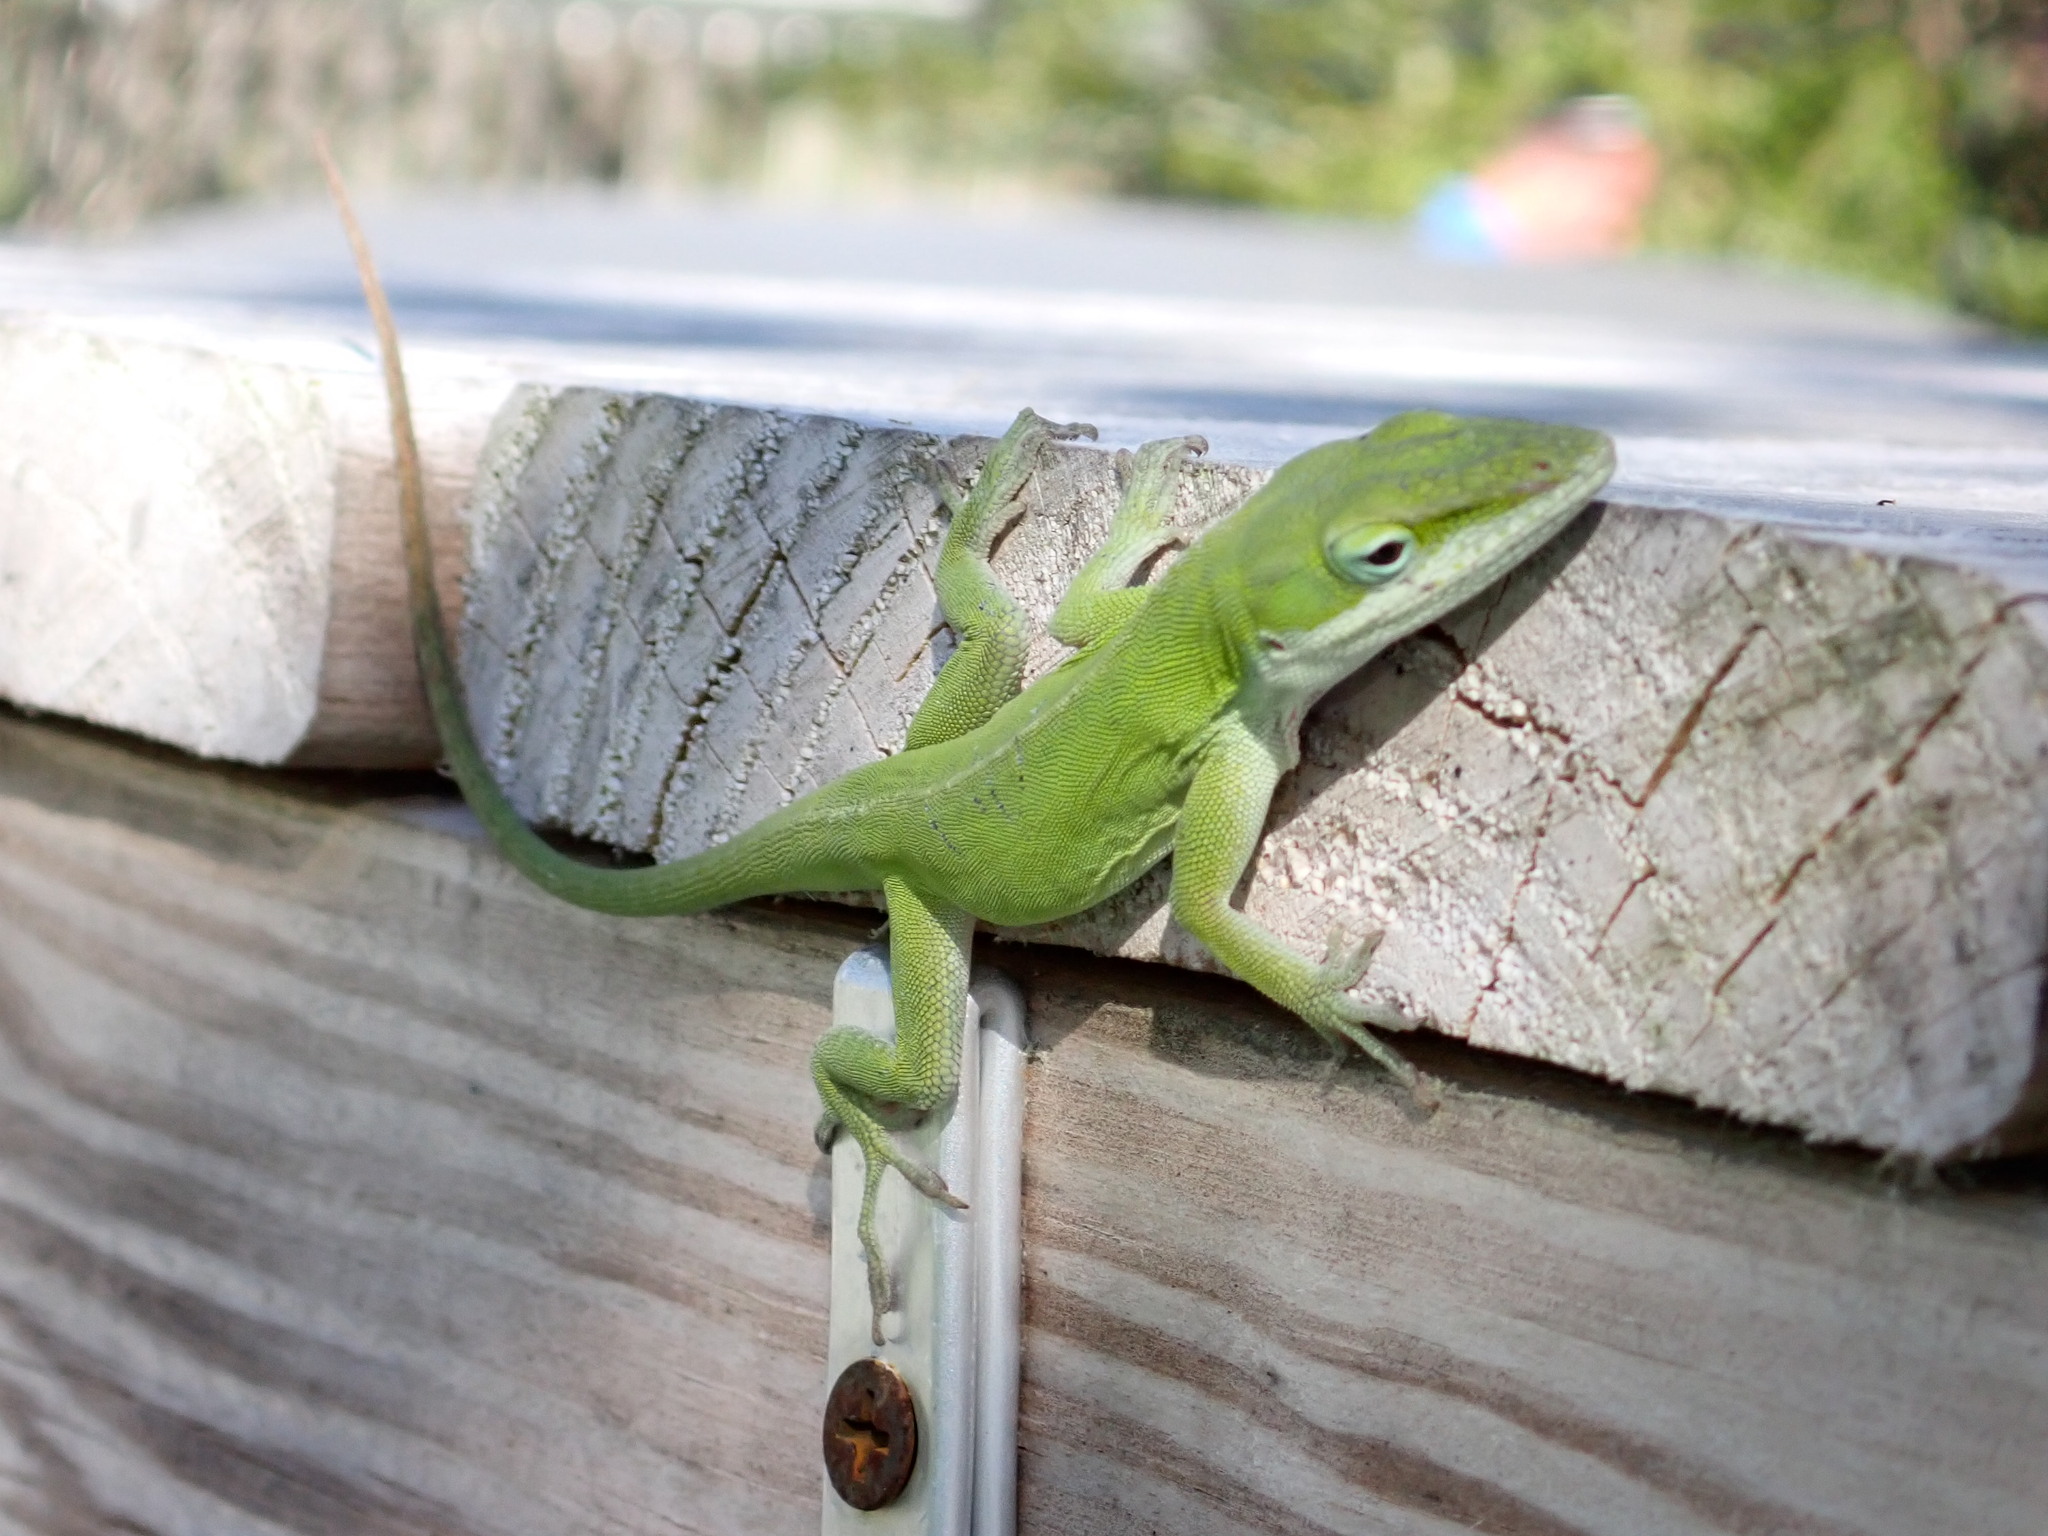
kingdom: Animalia
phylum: Chordata
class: Squamata
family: Dactyloidae
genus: Anolis
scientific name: Anolis carolinensis
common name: Green anole
